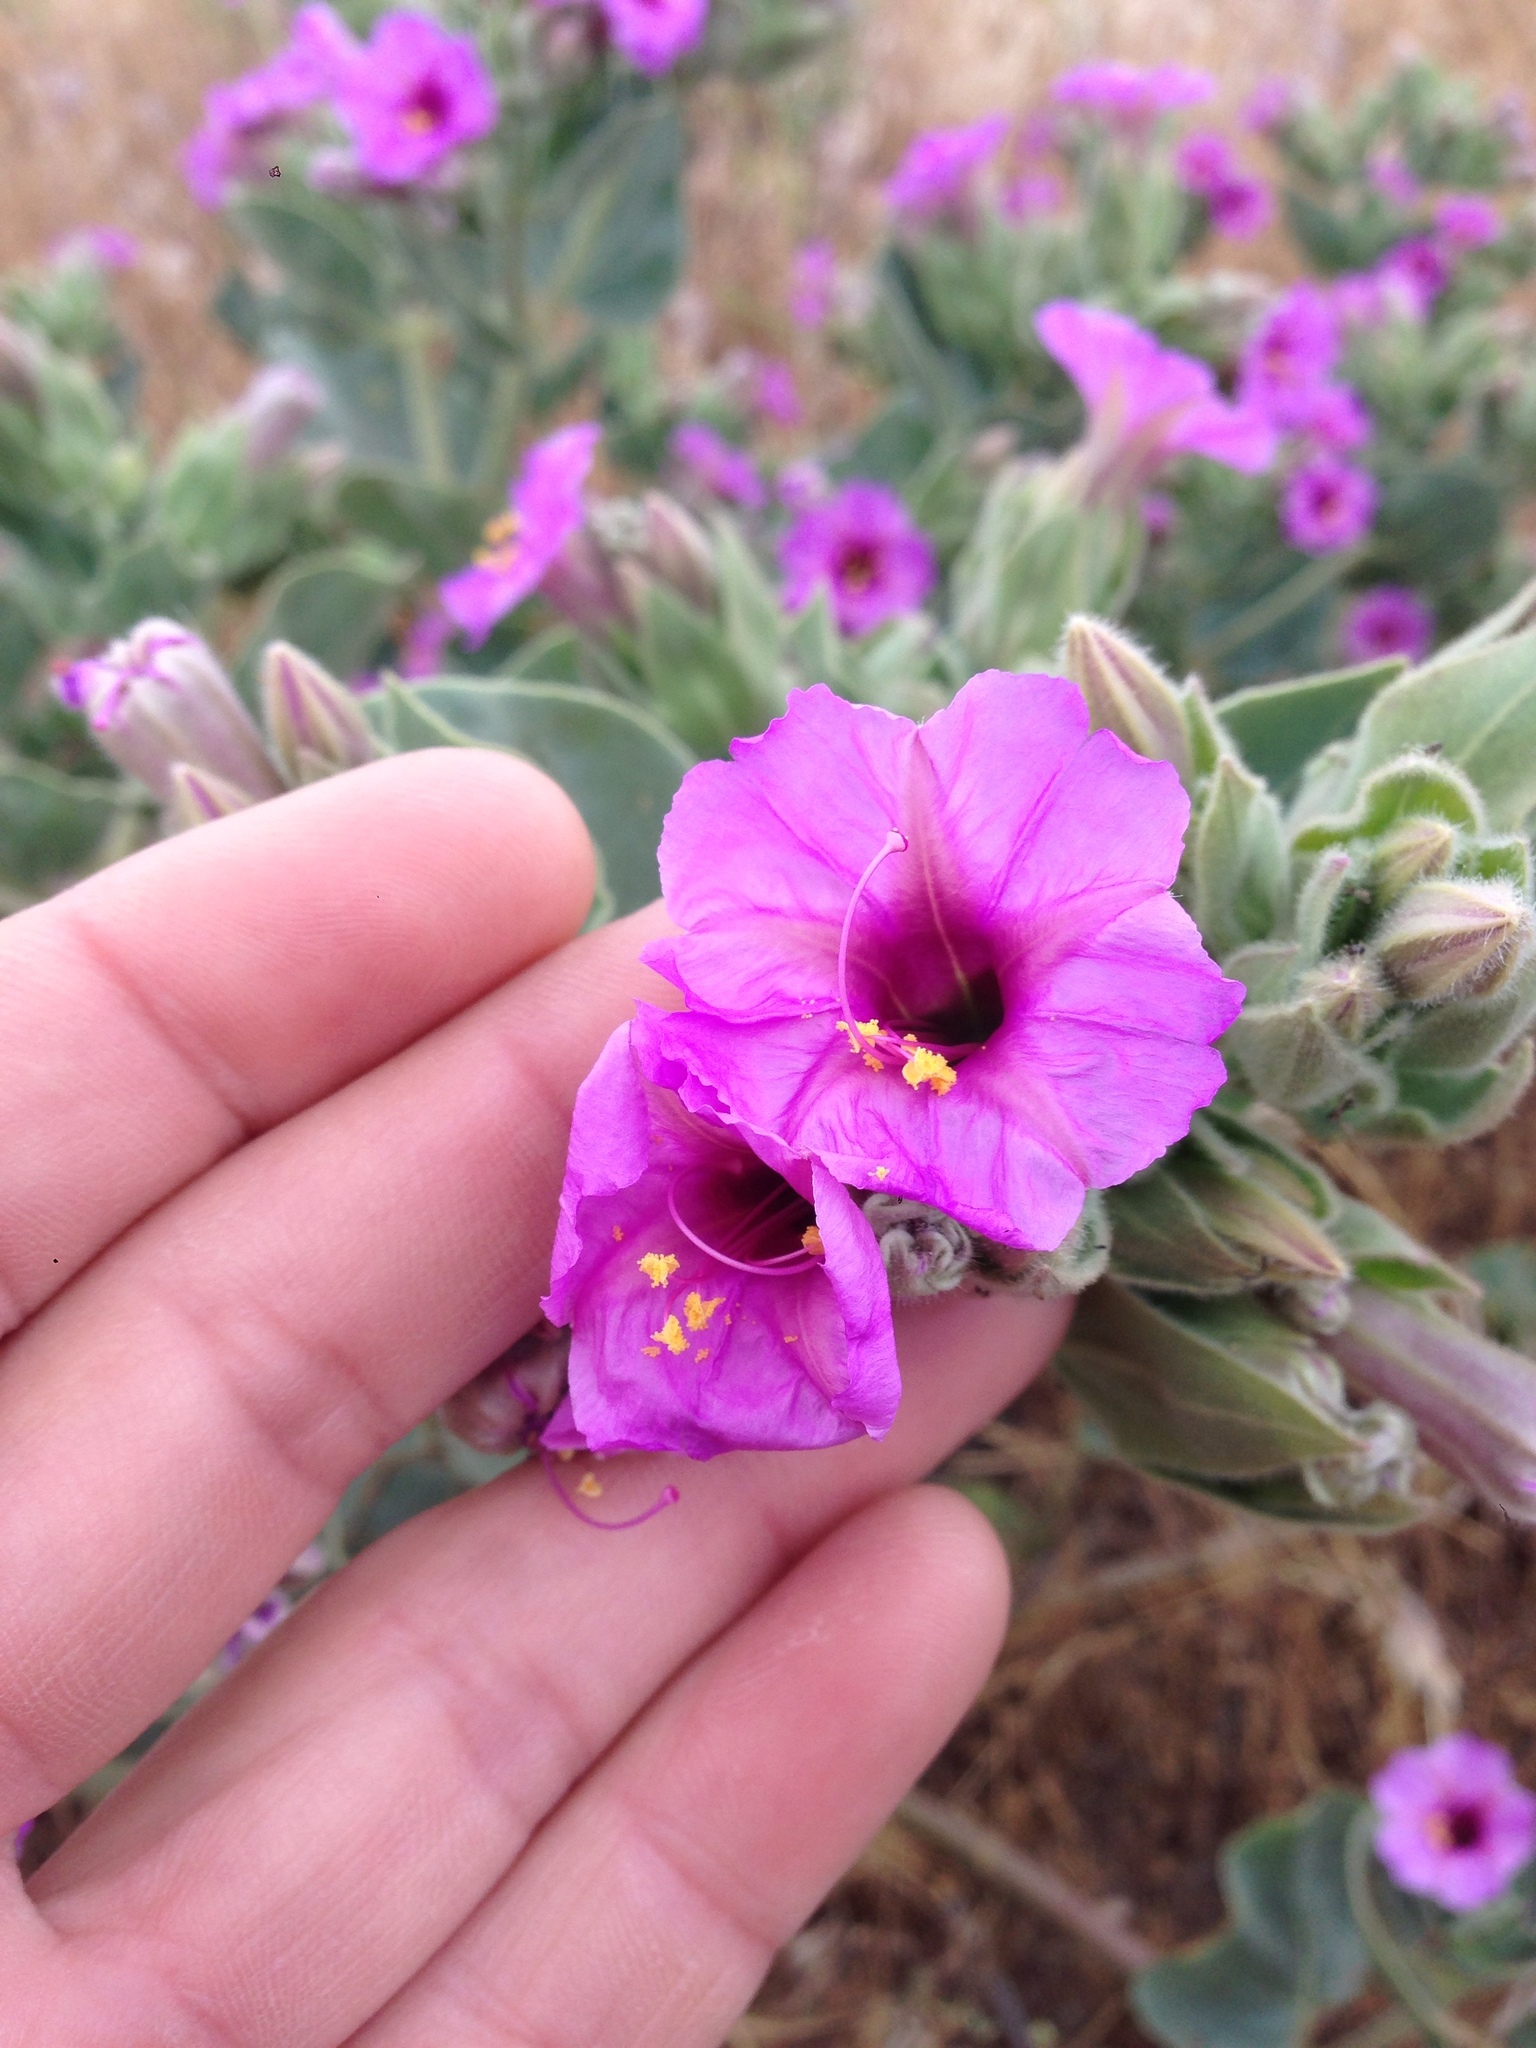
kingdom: Plantae
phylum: Tracheophyta
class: Magnoliopsida
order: Caryophyllales
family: Nyctaginaceae
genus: Mirabilis
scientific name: Mirabilis multiflora
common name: Froebel's four-o'clock
